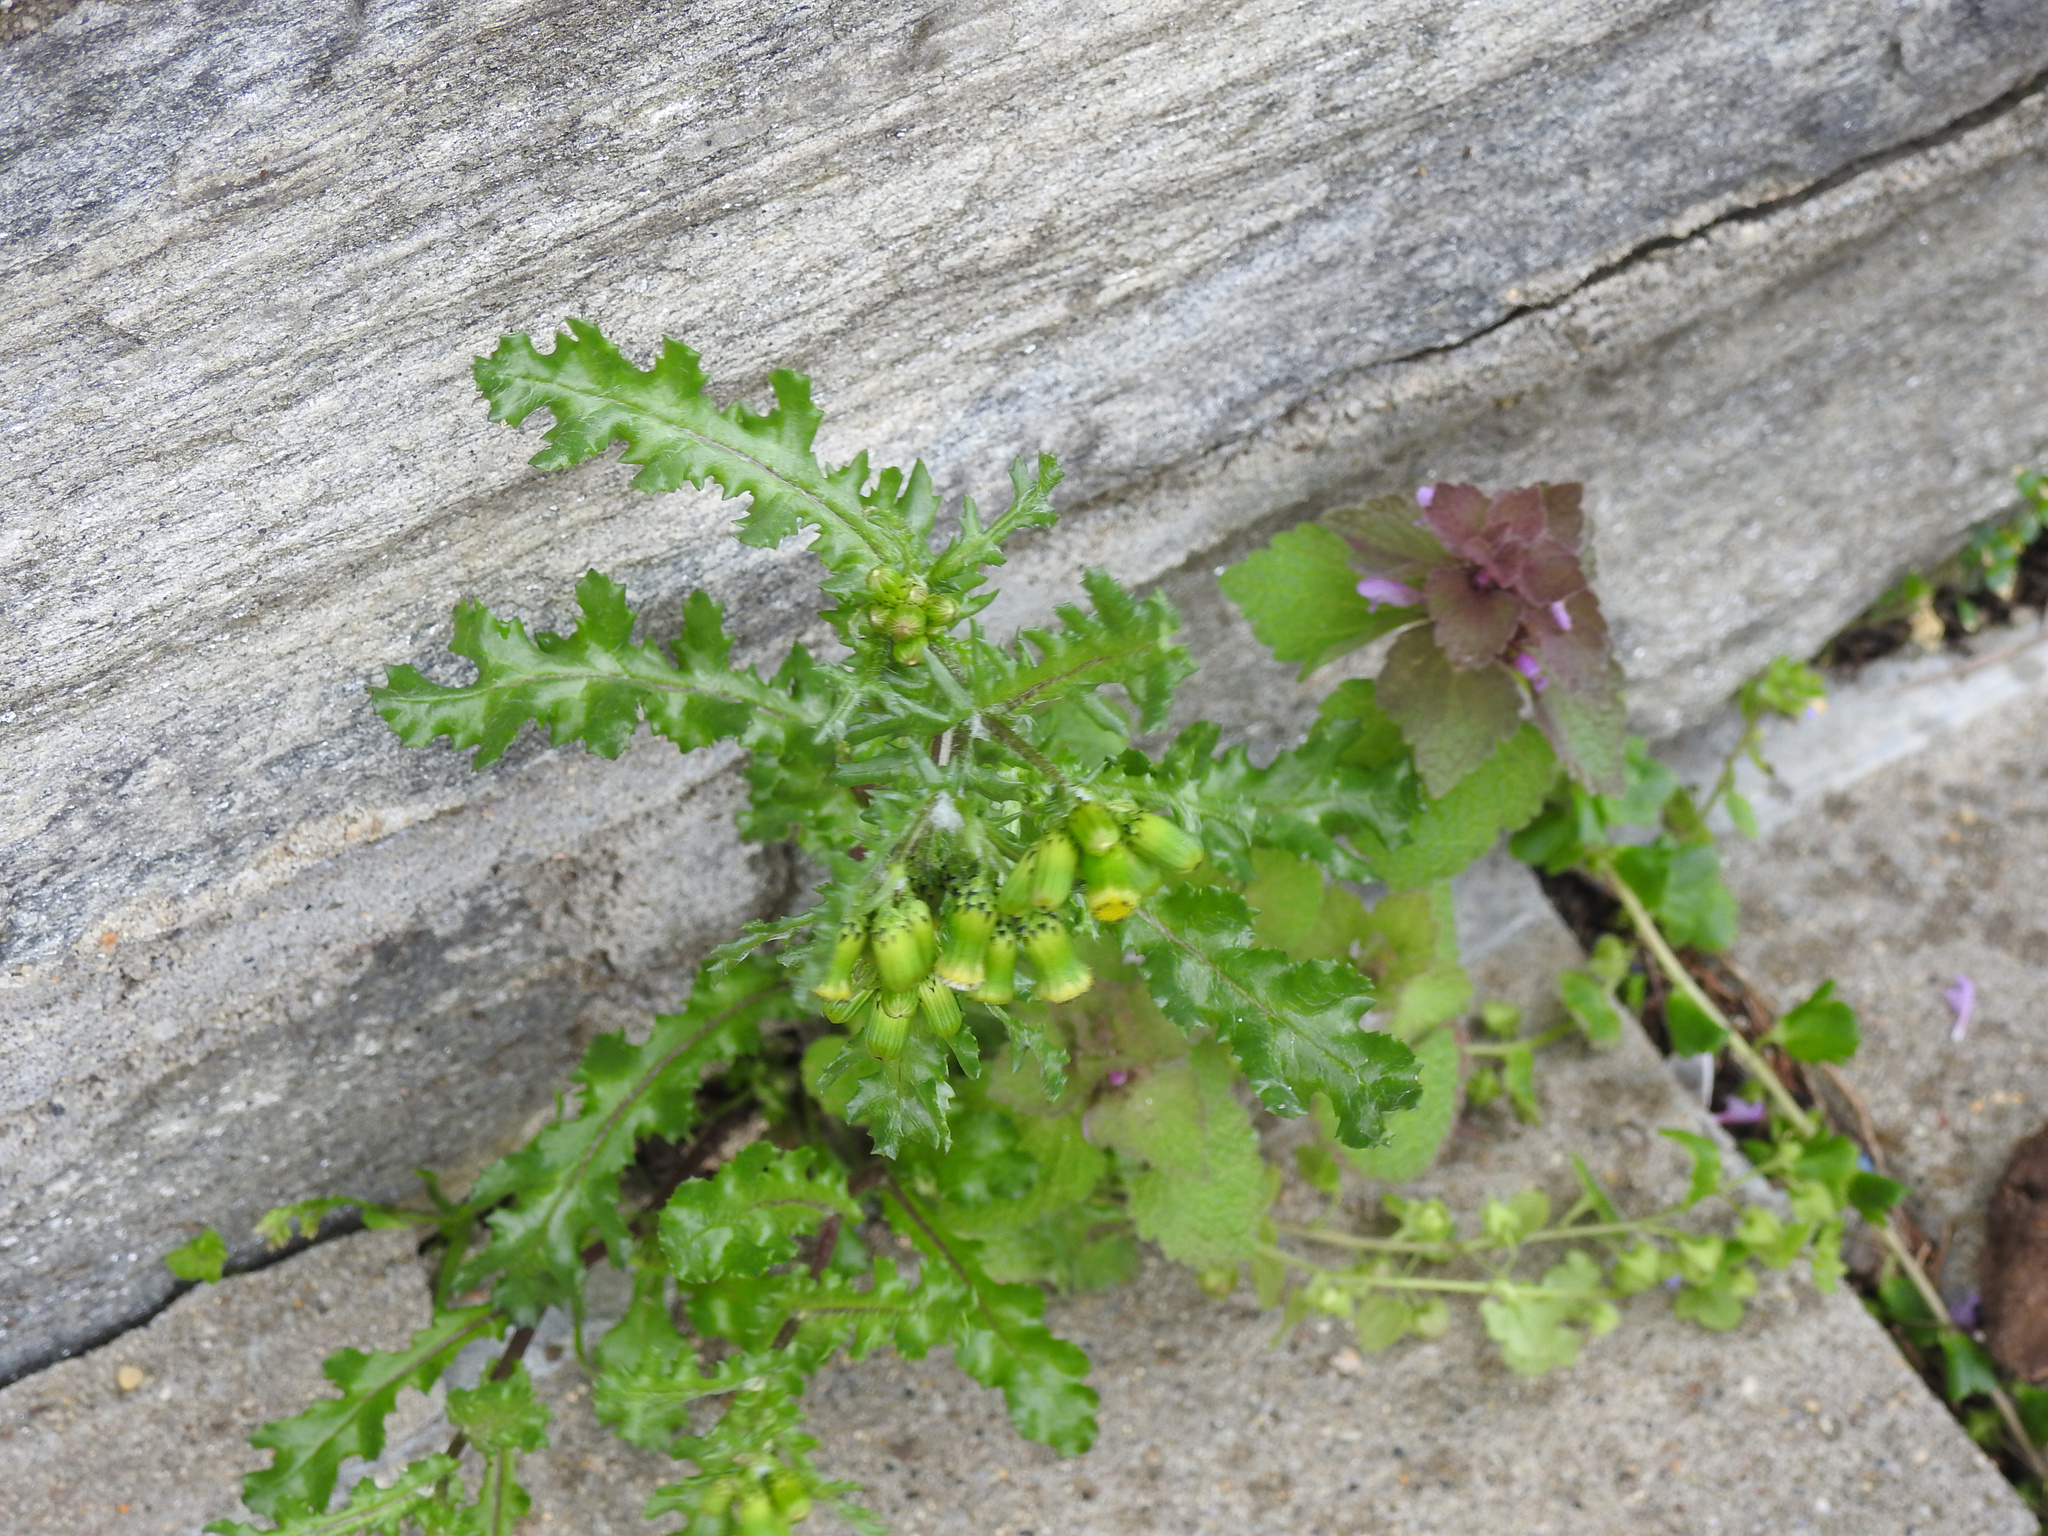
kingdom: Plantae
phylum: Tracheophyta
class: Magnoliopsida
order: Asterales
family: Asteraceae
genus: Senecio
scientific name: Senecio vulgaris
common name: Old-man-in-the-spring
